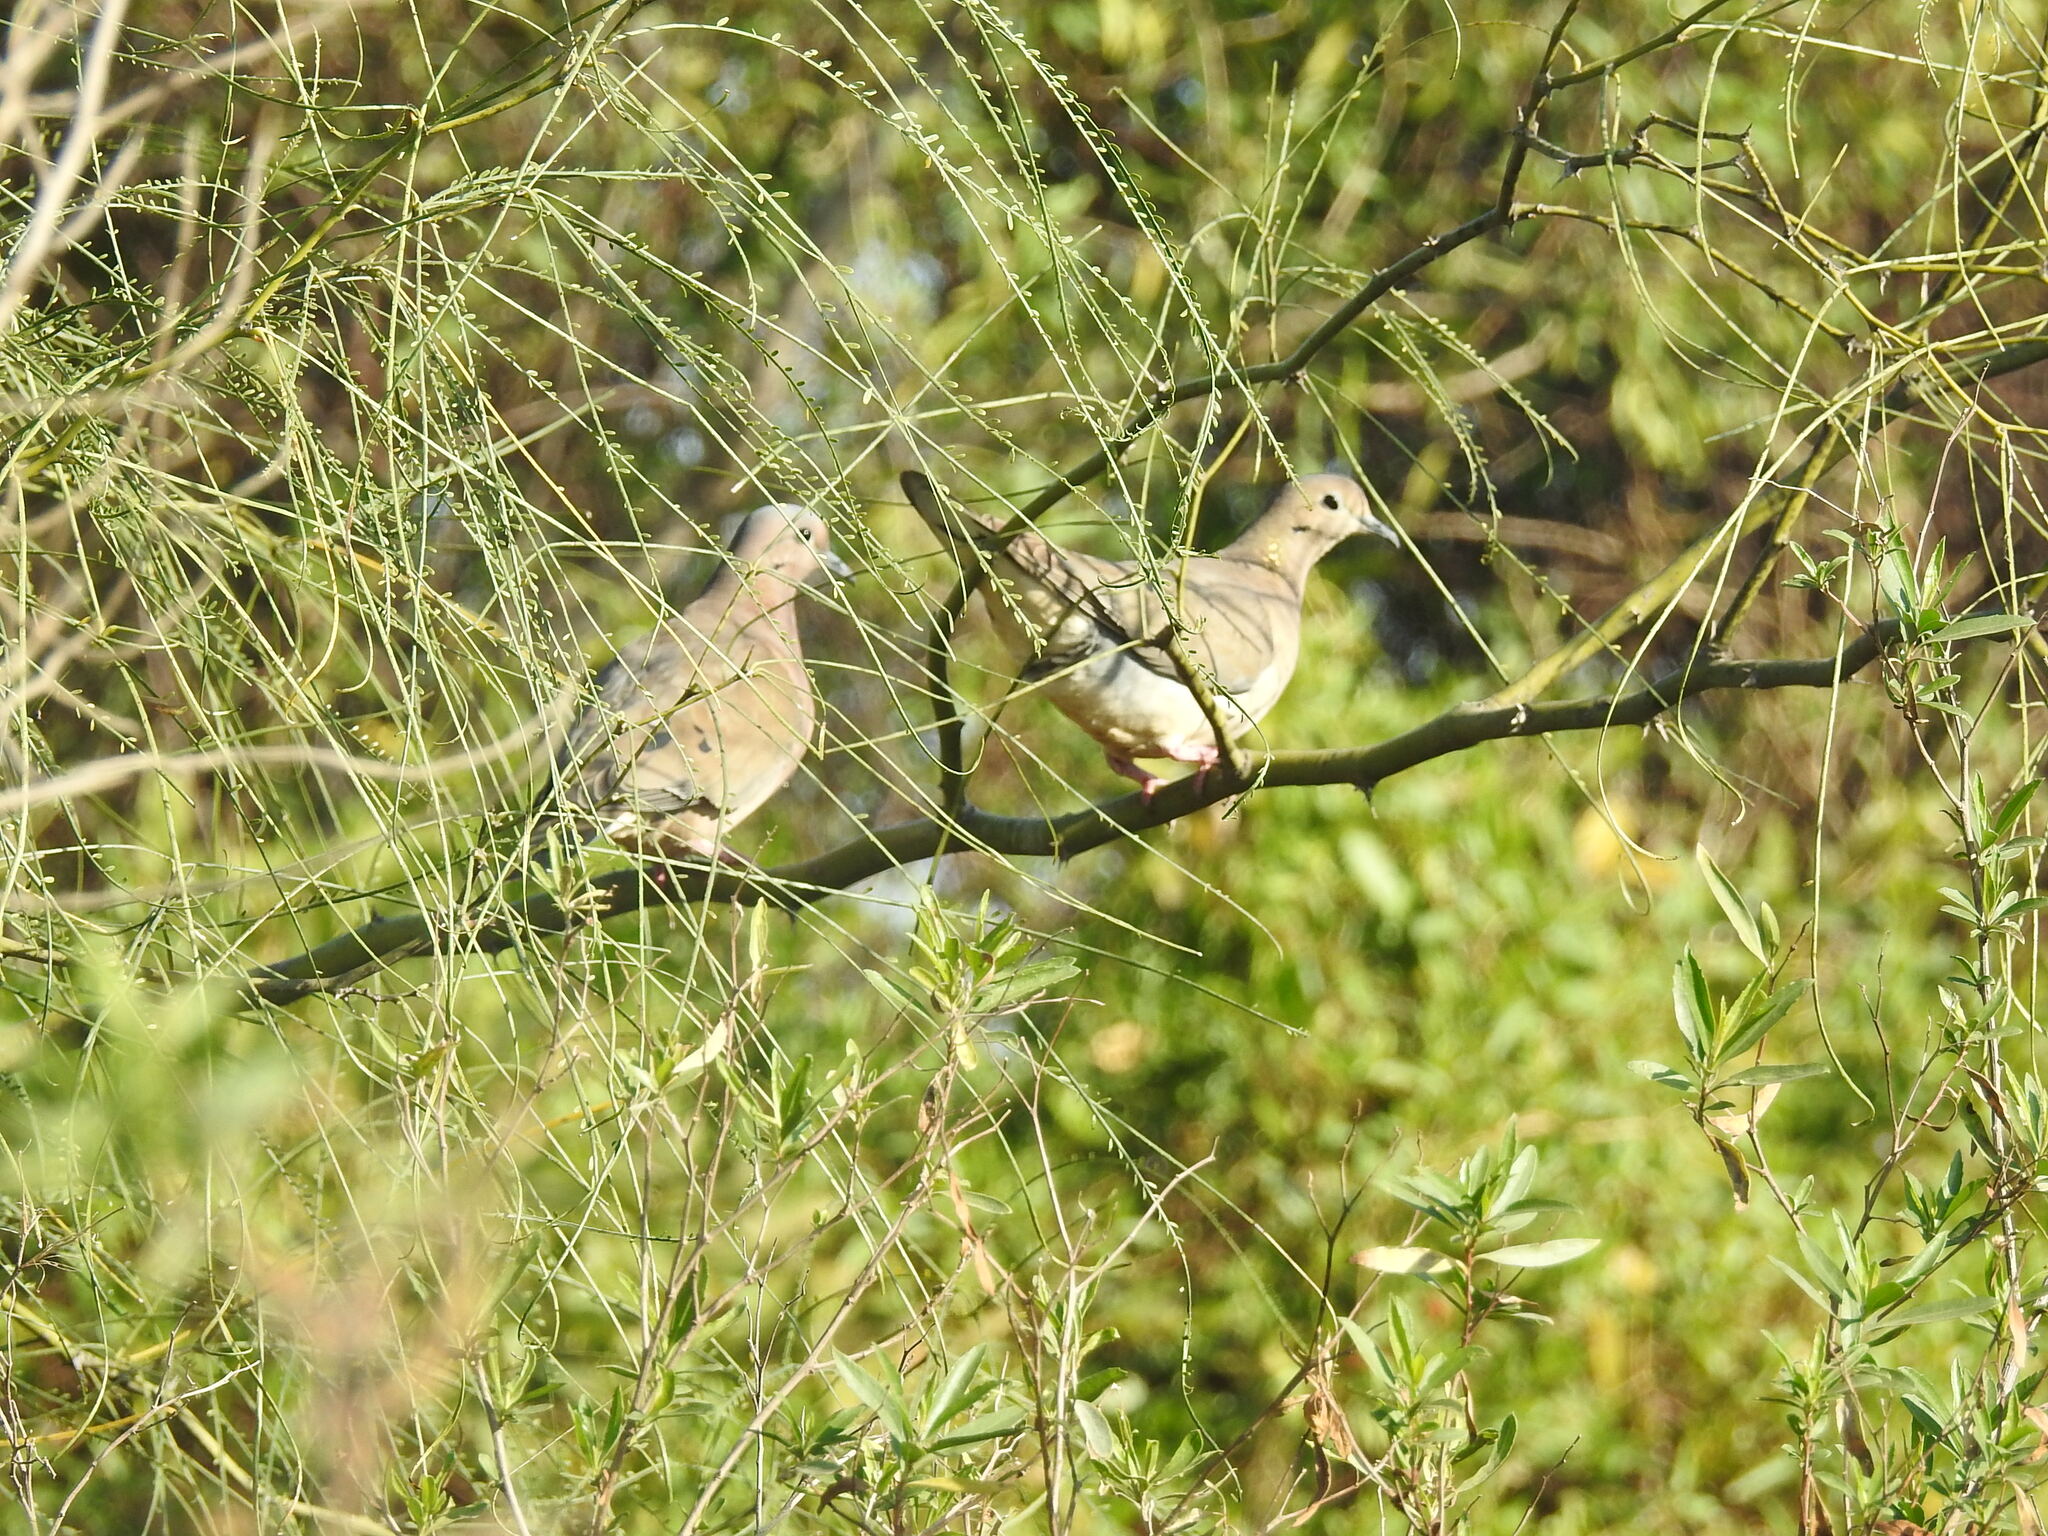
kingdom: Animalia
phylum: Chordata
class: Aves
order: Columbiformes
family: Columbidae
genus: Zenaida
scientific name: Zenaida auriculata
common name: Eared dove
